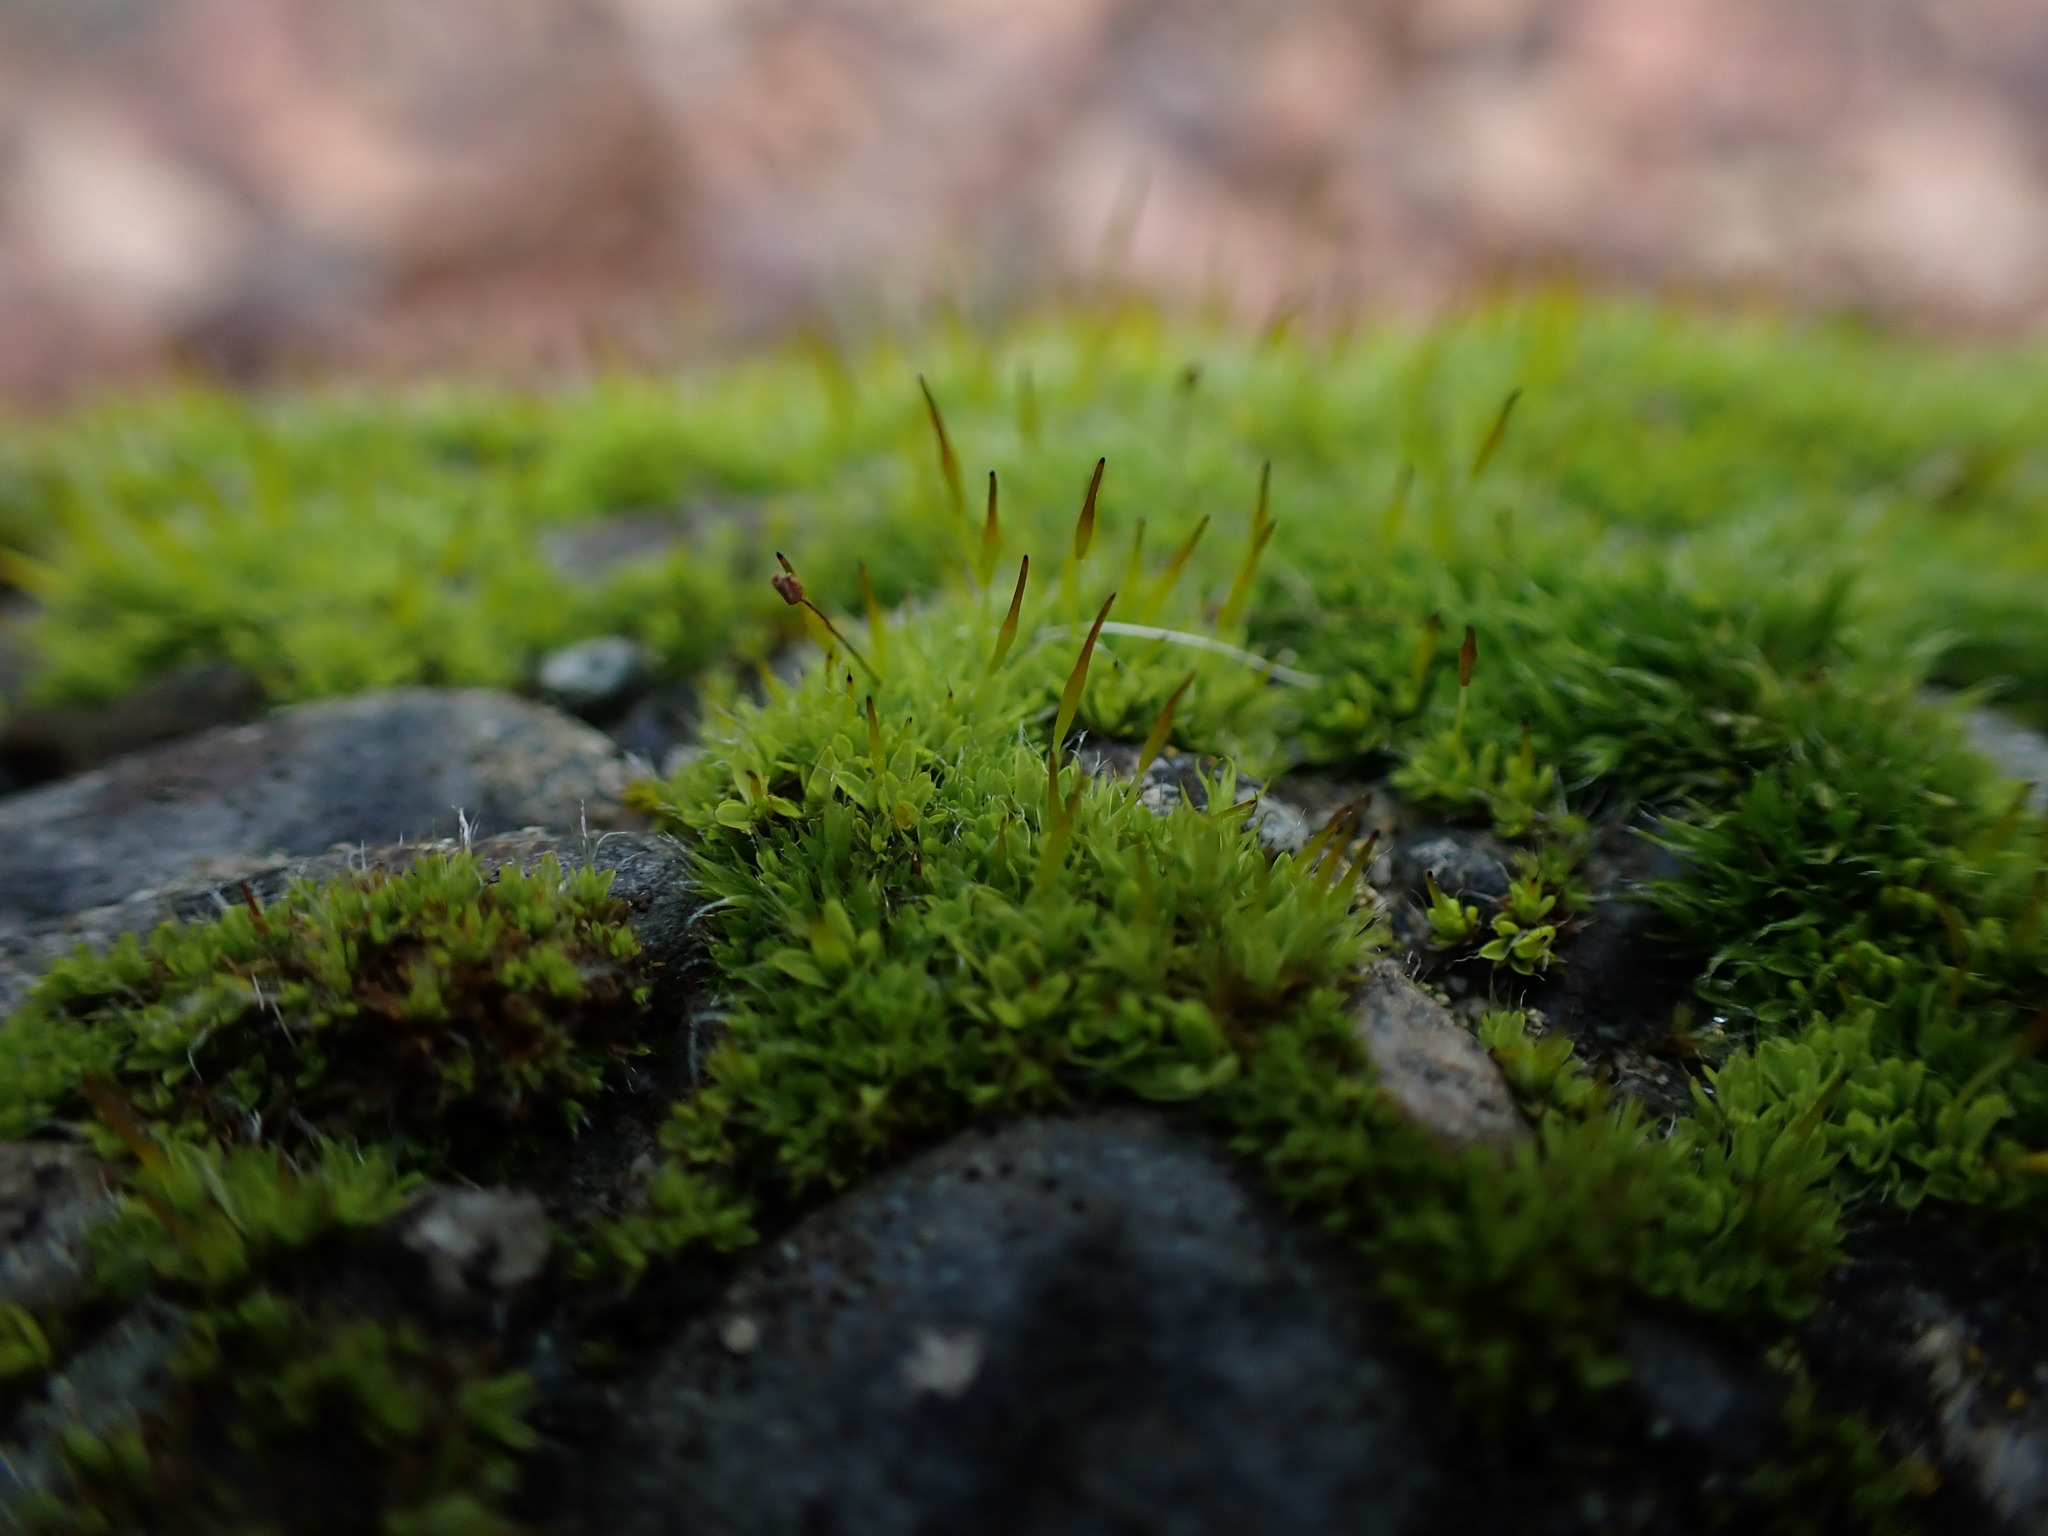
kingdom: Plantae
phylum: Bryophyta
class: Bryopsida
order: Pottiales
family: Pottiaceae
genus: Tortula
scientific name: Tortula muralis
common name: Wall screw-moss
